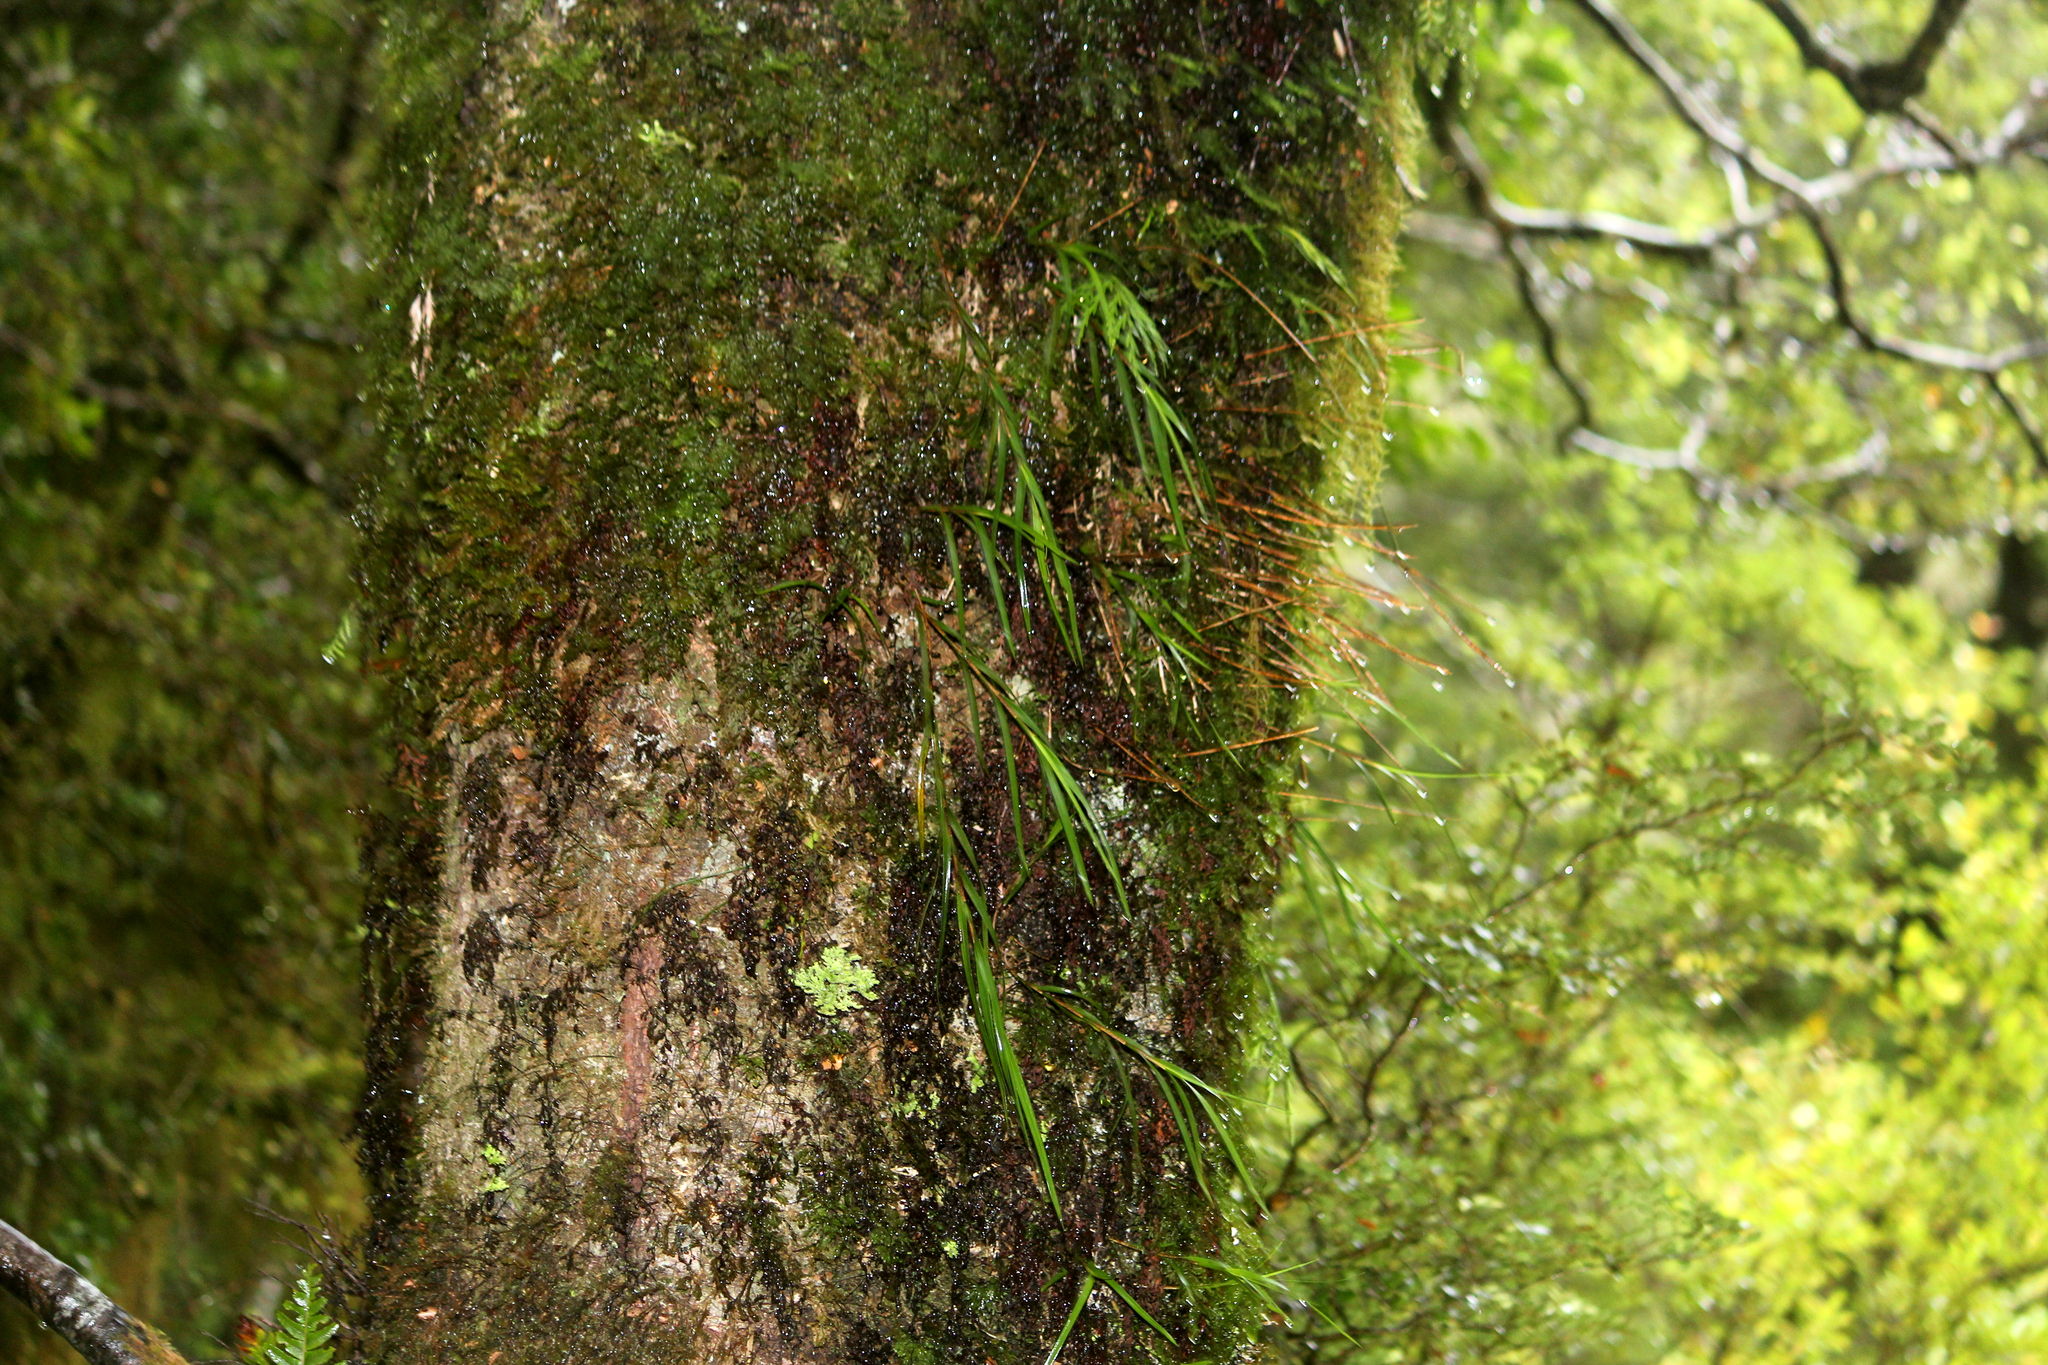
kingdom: Plantae
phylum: Tracheophyta
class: Liliopsida
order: Asparagales
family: Orchidaceae
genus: Earina
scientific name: Earina mucronata
